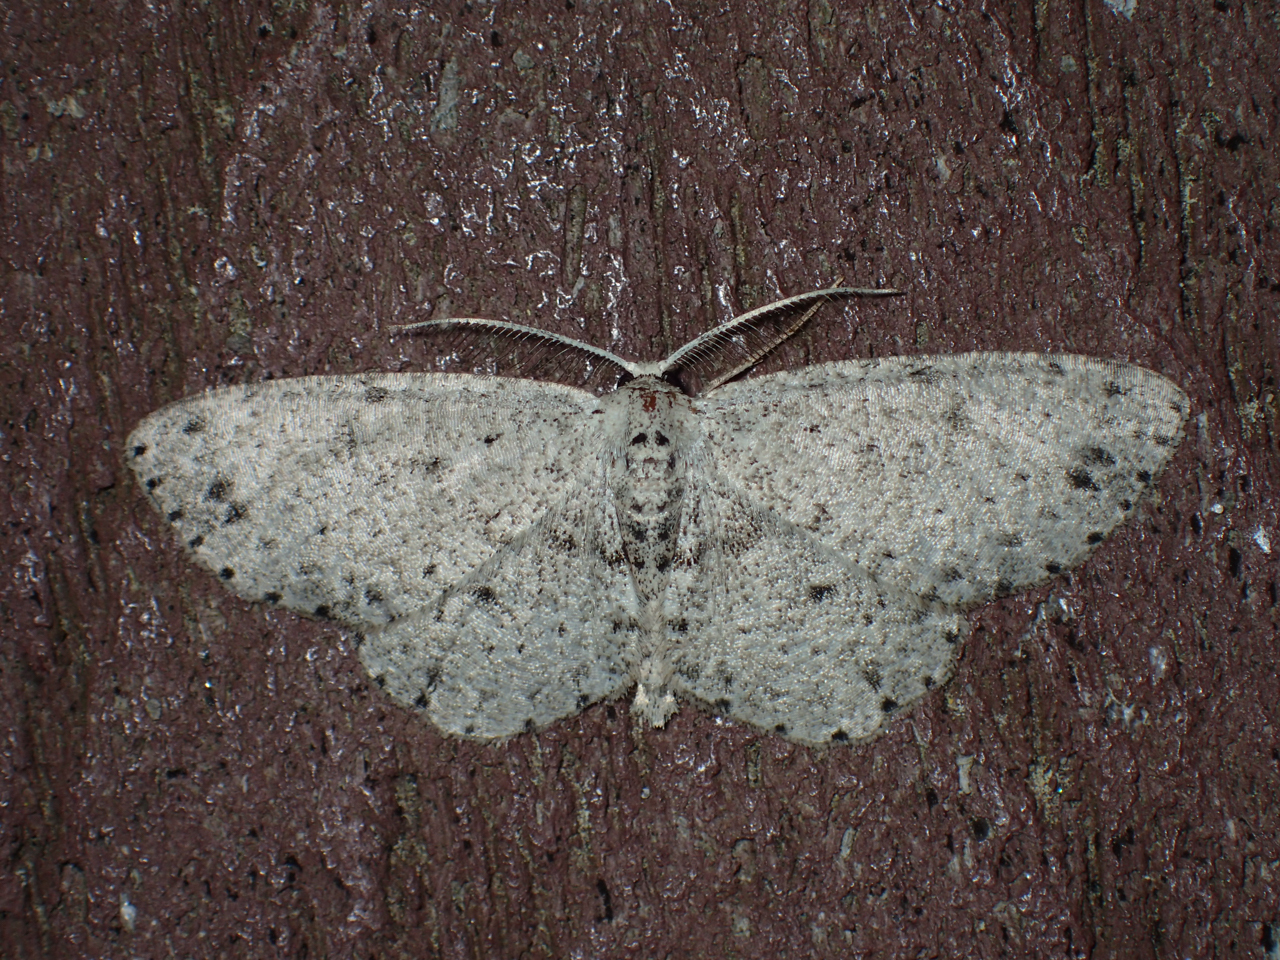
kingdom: Animalia
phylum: Arthropoda
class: Insecta
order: Lepidoptera
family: Geometridae
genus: Glena
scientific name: Glena cribrataria
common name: Dotted gray
